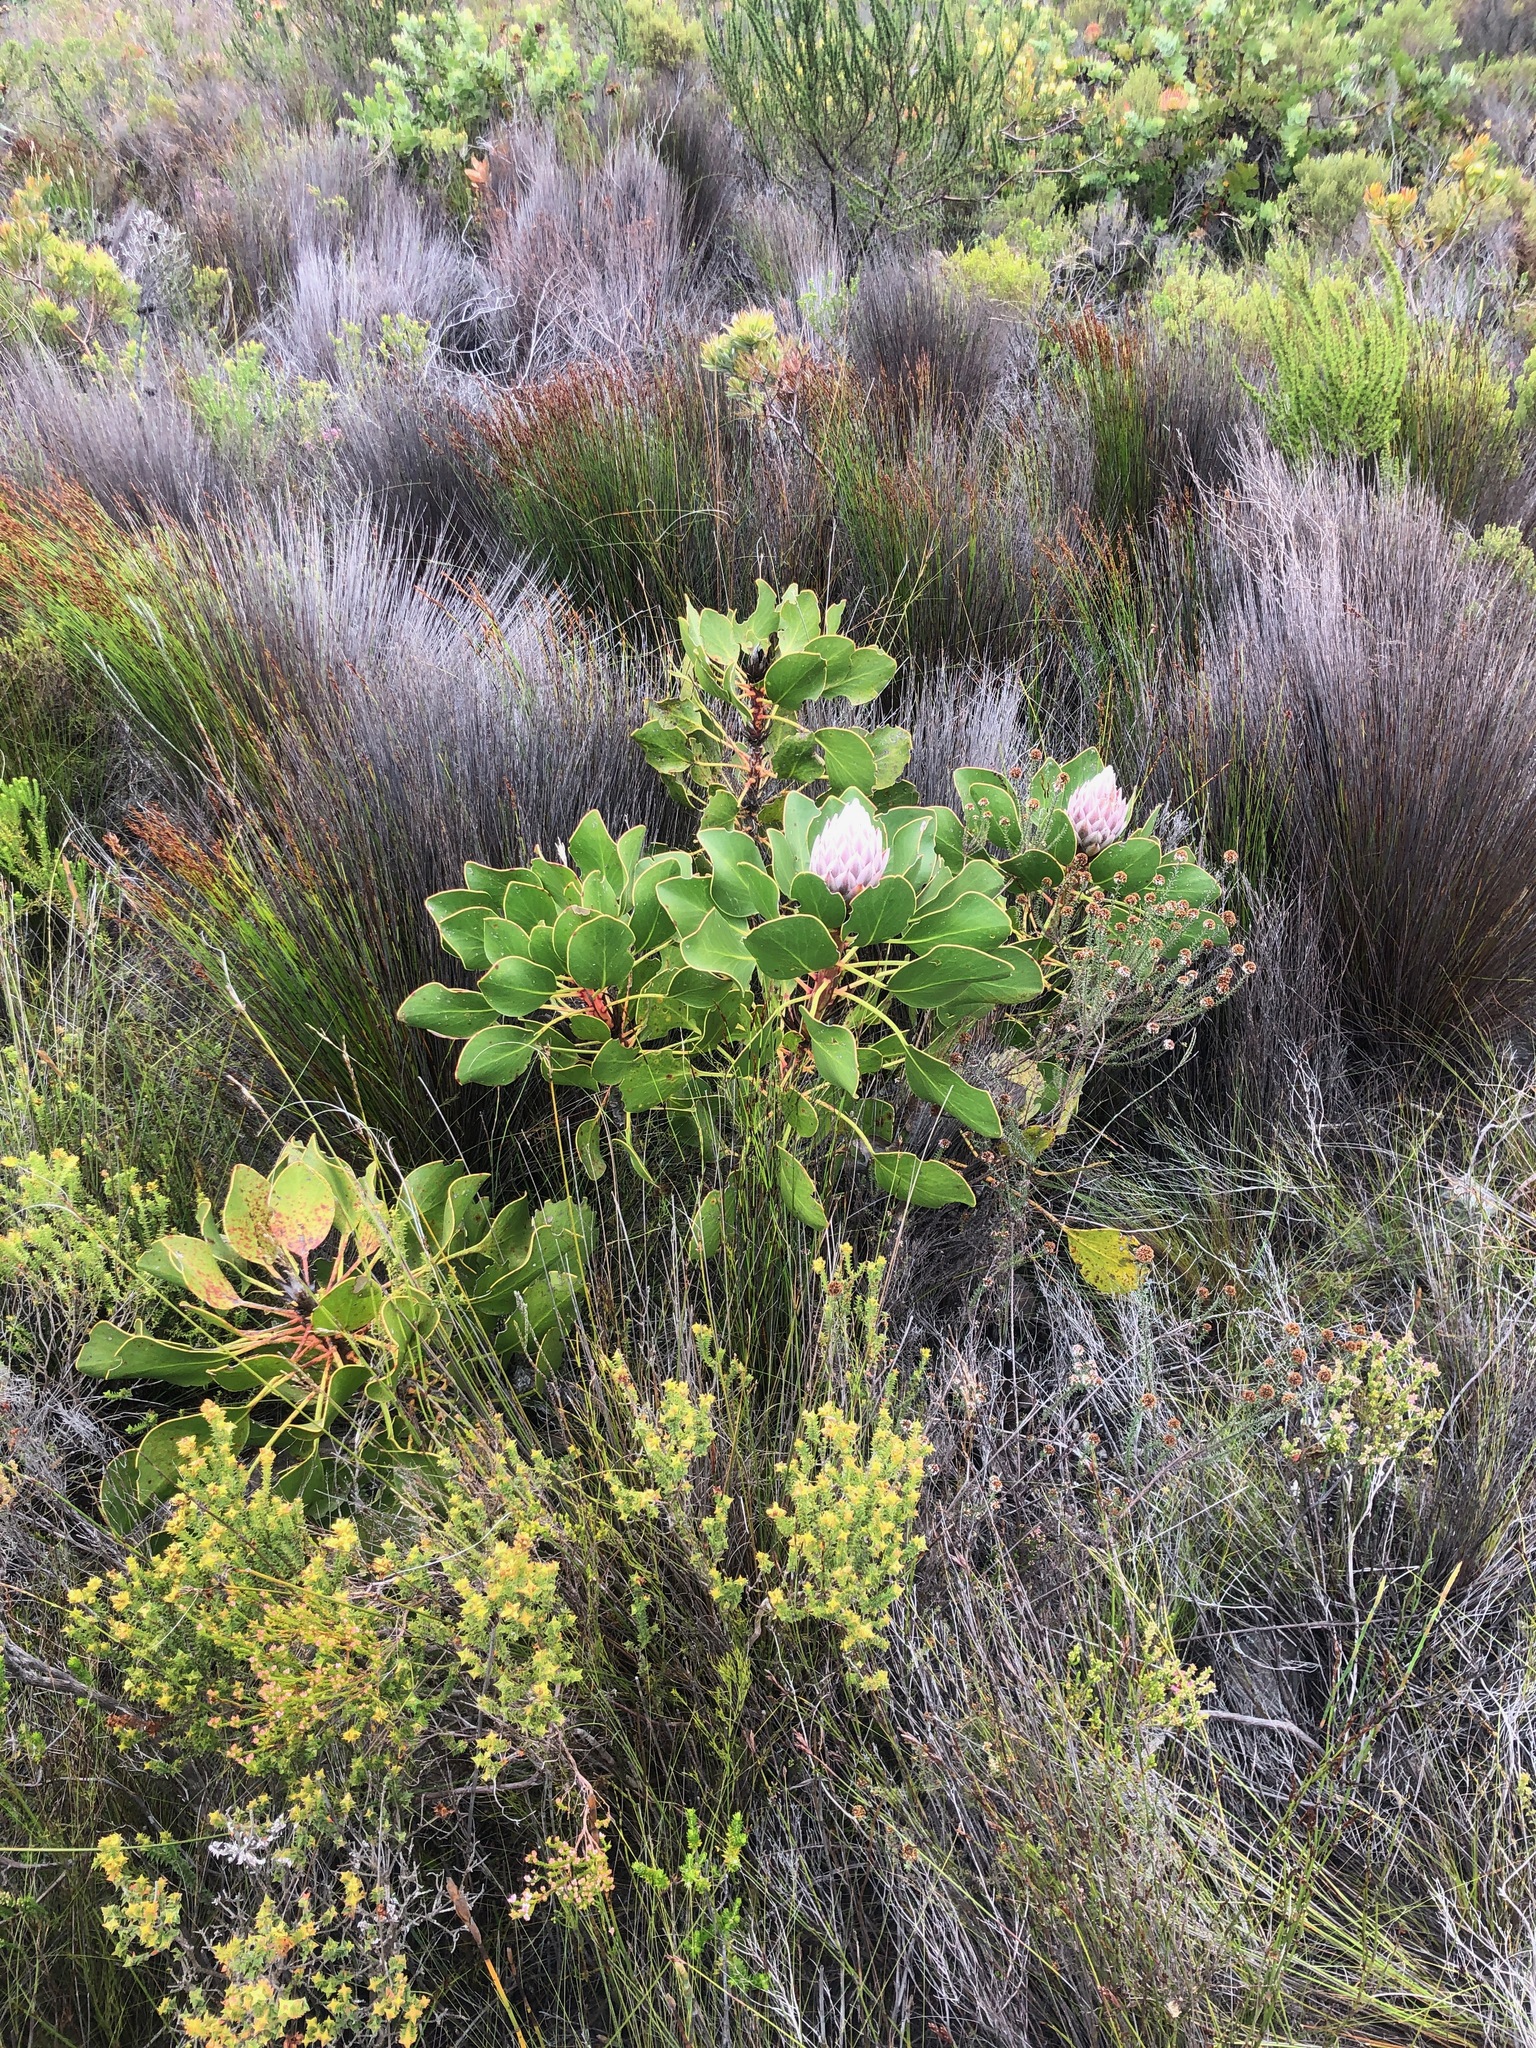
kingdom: Plantae
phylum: Tracheophyta
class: Magnoliopsida
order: Proteales
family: Proteaceae
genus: Protea
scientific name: Protea cynaroides
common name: King protea
